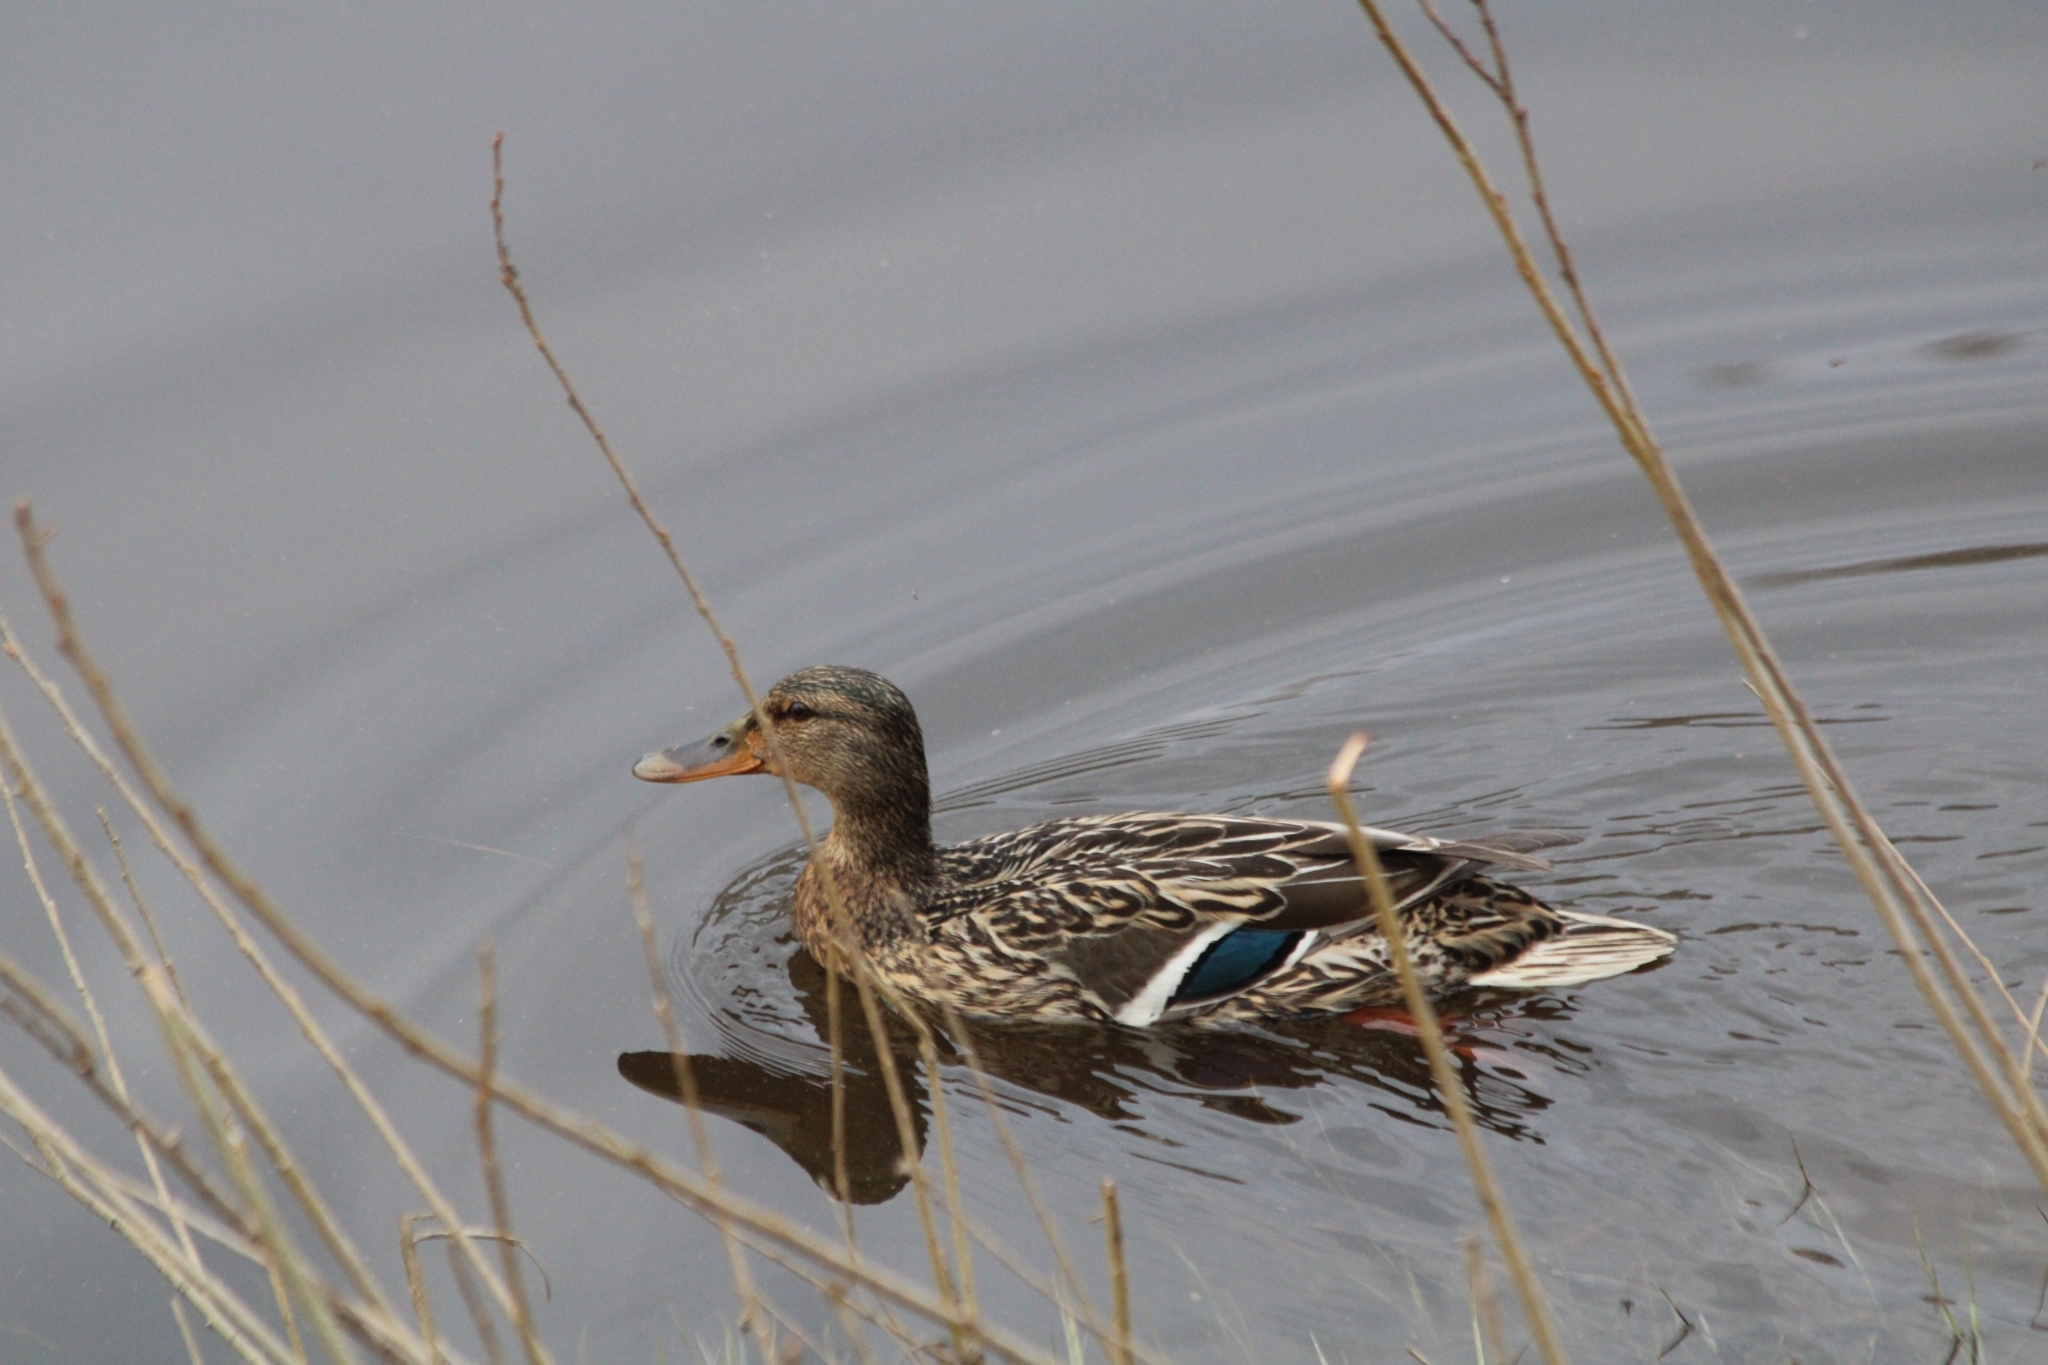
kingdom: Animalia
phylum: Chordata
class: Aves
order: Anseriformes
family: Anatidae
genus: Anas
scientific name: Anas platyrhynchos
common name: Mallard
